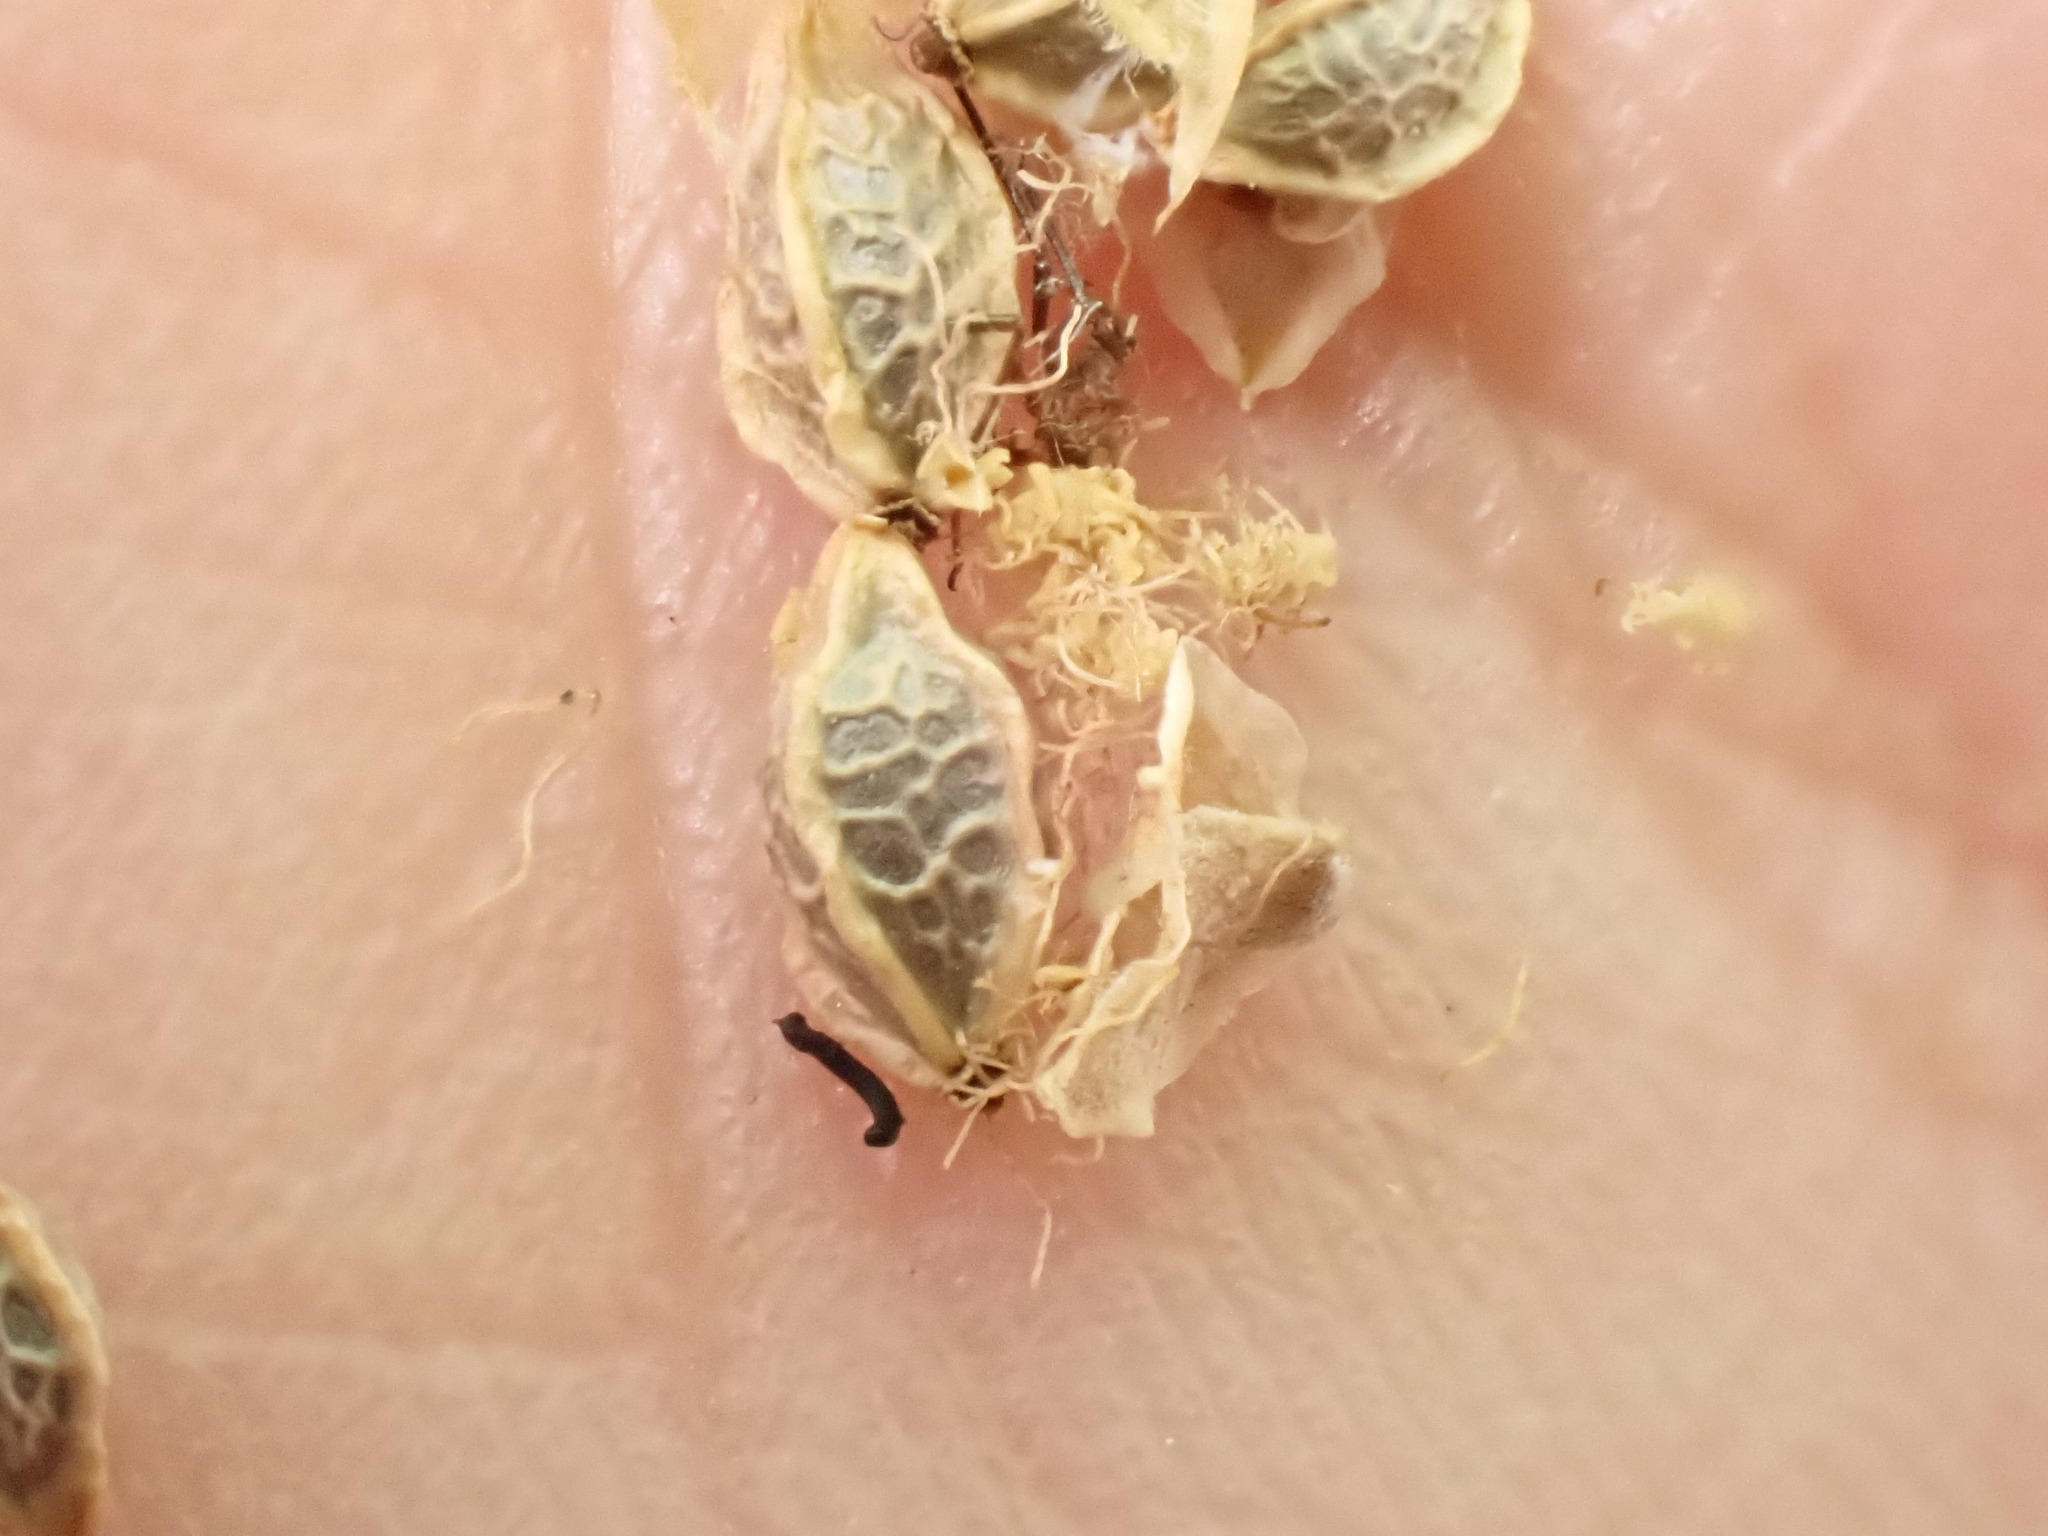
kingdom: Plantae
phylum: Tracheophyta
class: Magnoliopsida
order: Rosales
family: Rosaceae
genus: Poterium
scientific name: Poterium sanguisorba
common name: Salad burnet
